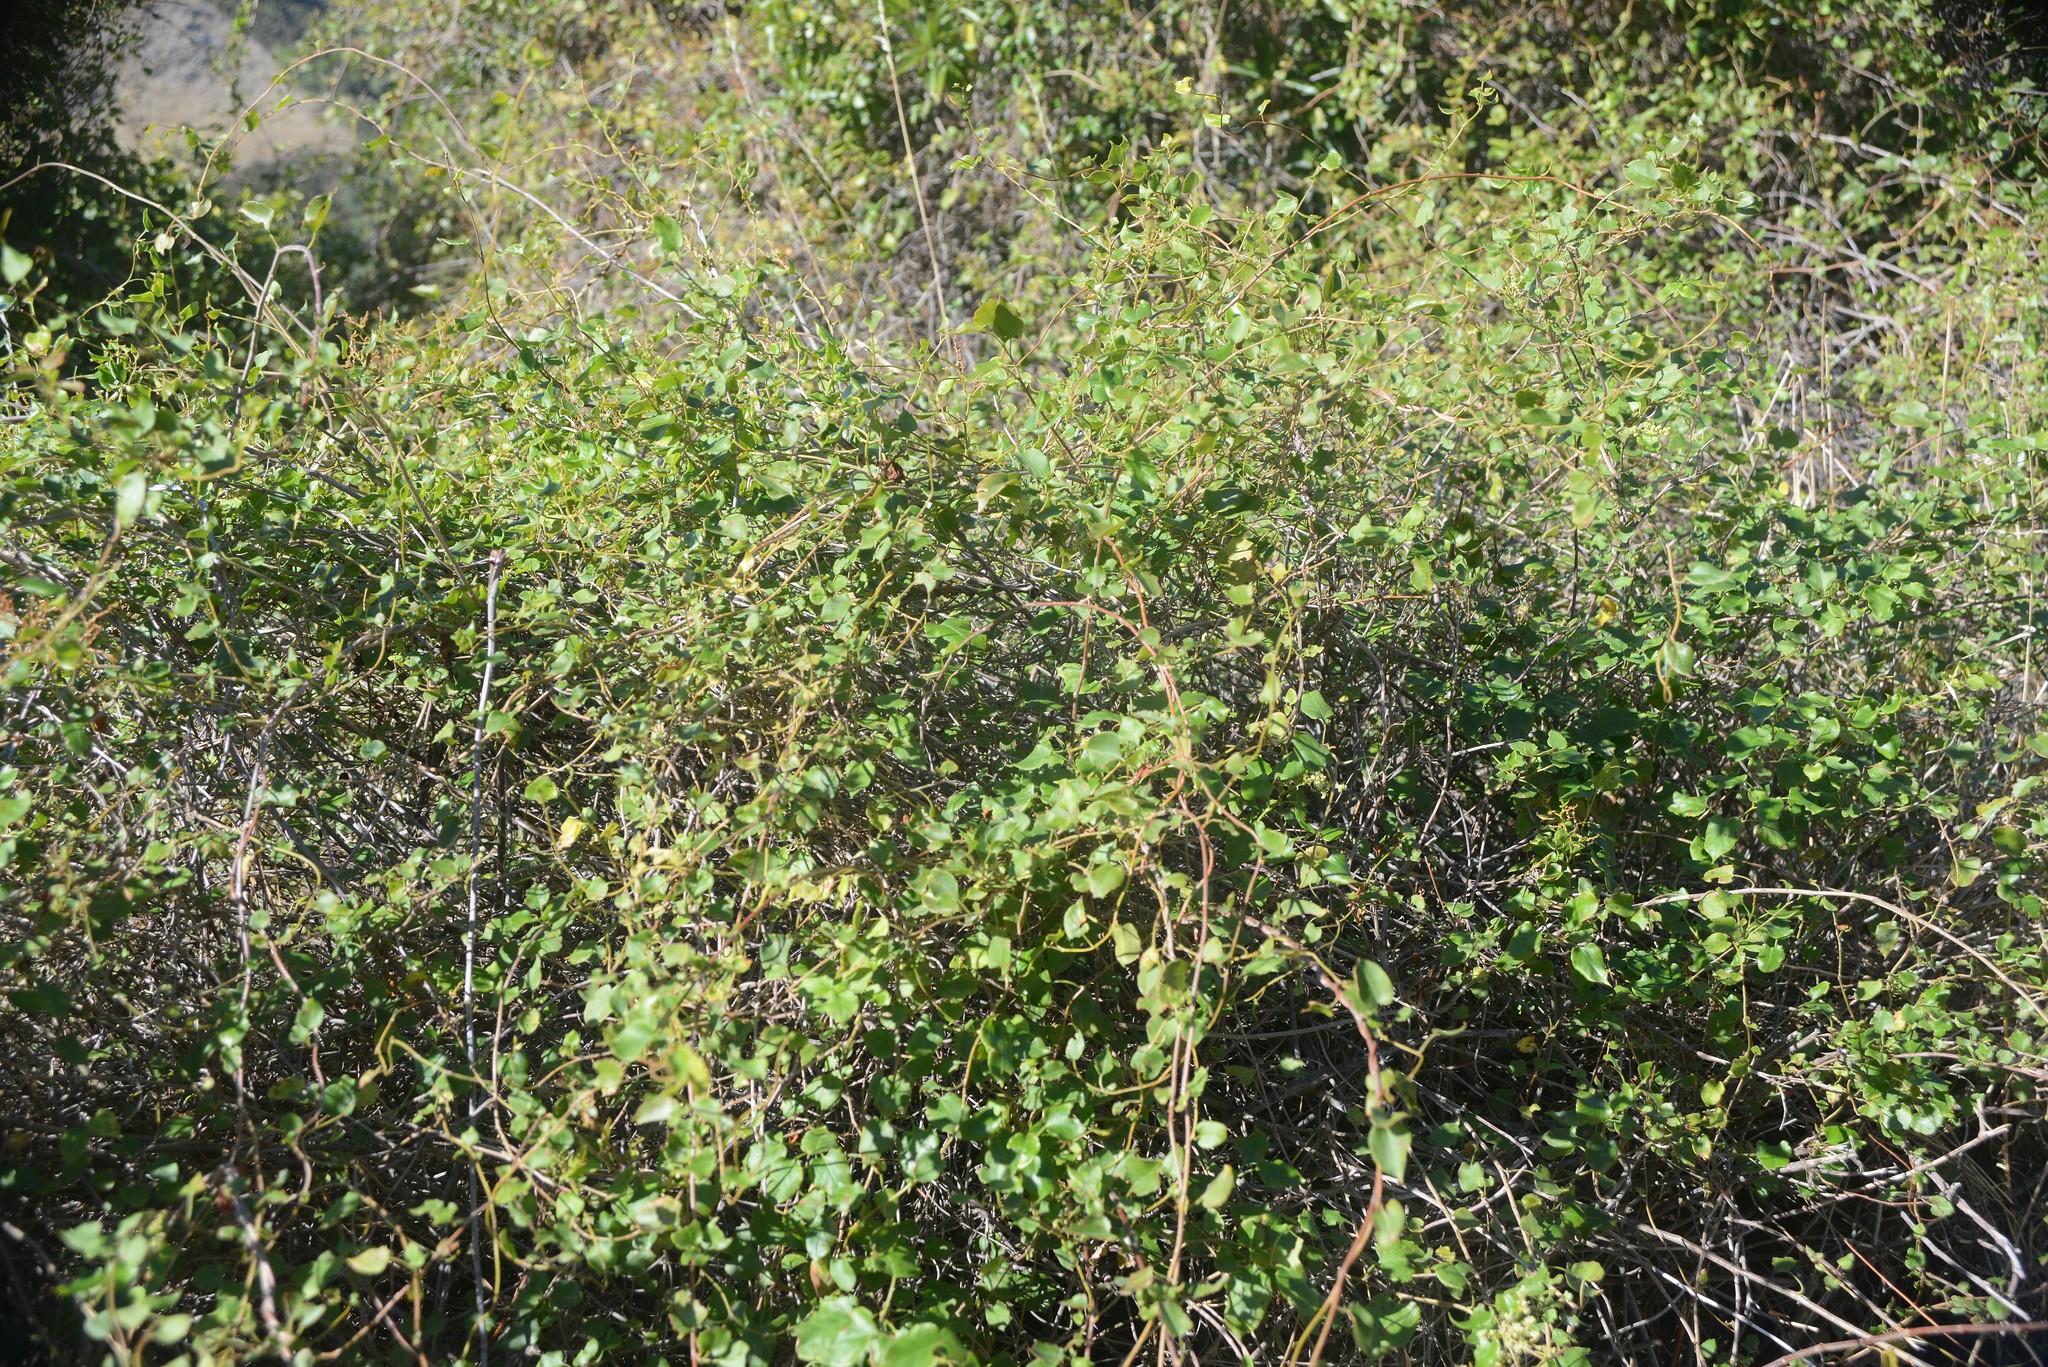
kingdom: Plantae
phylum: Tracheophyta
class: Magnoliopsida
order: Caryophyllales
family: Polygonaceae
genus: Muehlenbeckia
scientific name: Muehlenbeckia australis
